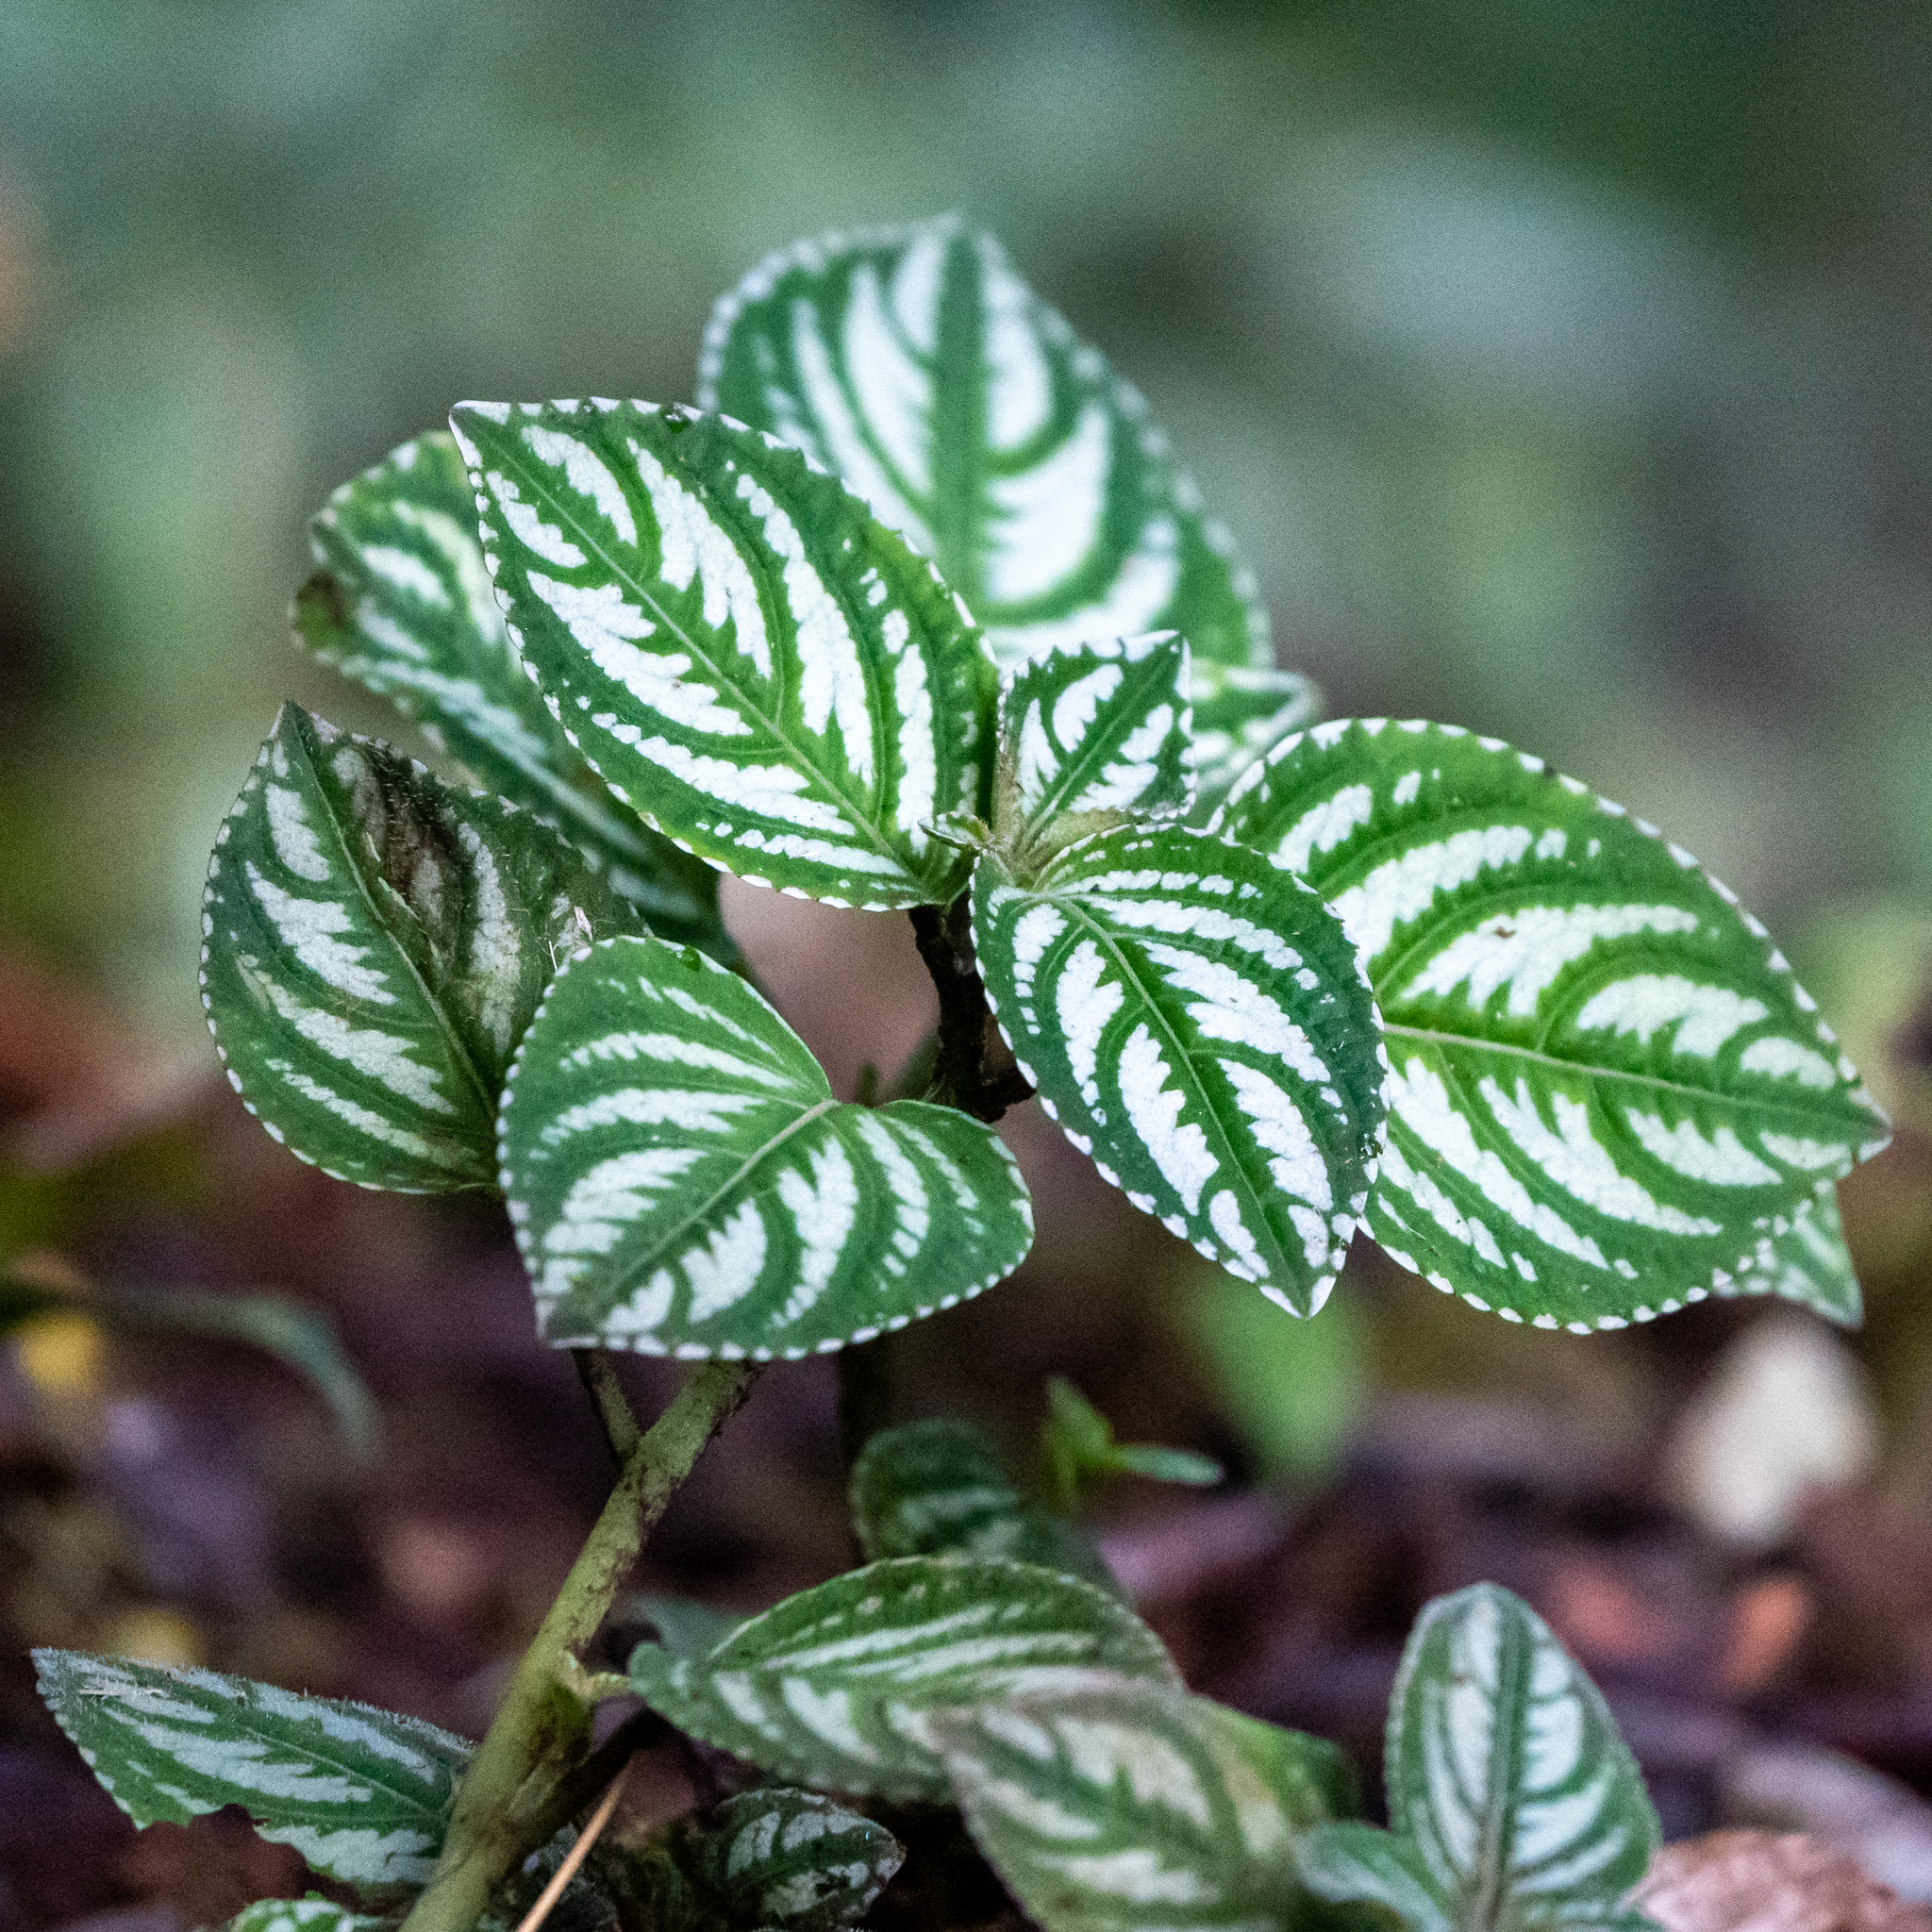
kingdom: Plantae
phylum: Tracheophyta
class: Magnoliopsida
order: Ericales
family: Balsaminaceae
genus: Impatiens
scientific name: Impatiens marianae
